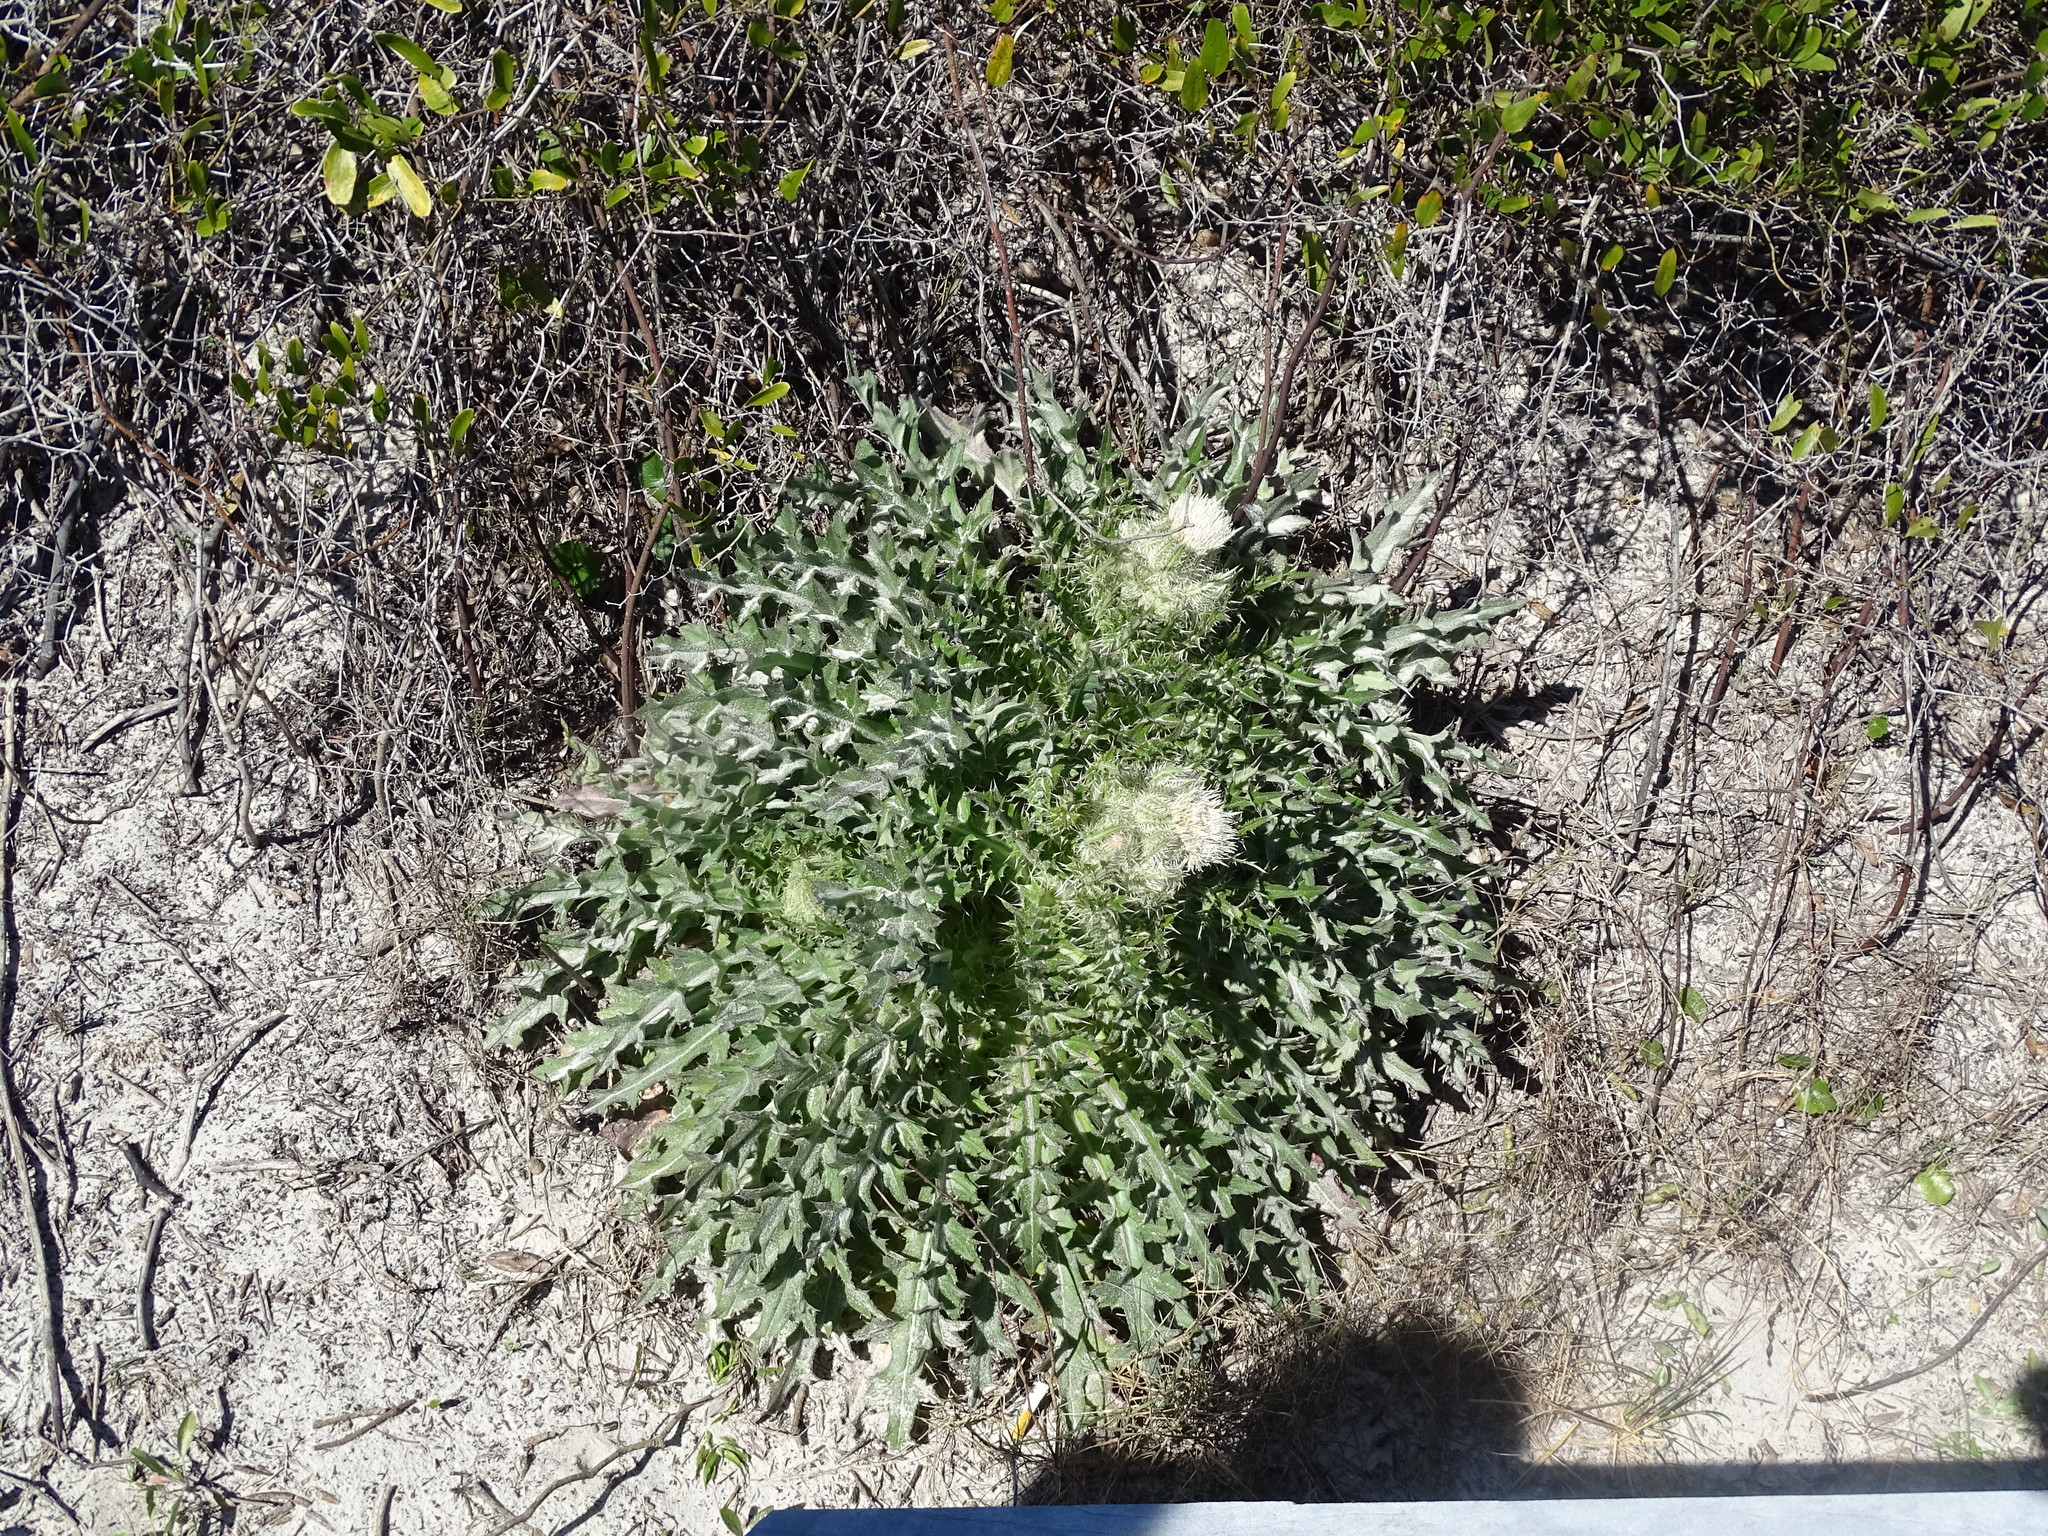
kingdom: Plantae
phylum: Tracheophyta
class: Magnoliopsida
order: Asterales
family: Asteraceae
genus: Cirsium
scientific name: Cirsium horridulum
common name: Bristly thistle
